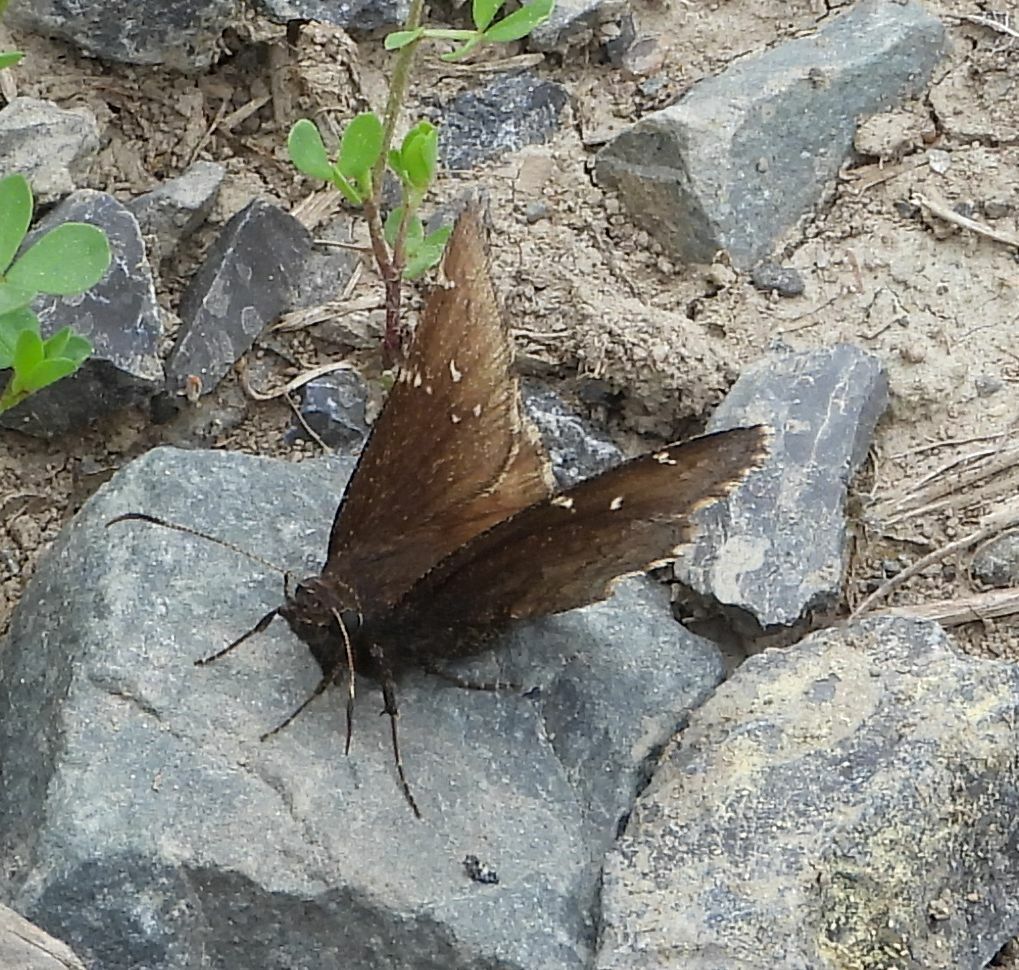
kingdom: Animalia
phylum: Arthropoda
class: Insecta
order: Lepidoptera
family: Hesperiidae
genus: Thorybes
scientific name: Thorybes pylades
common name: Northern cloudywing
